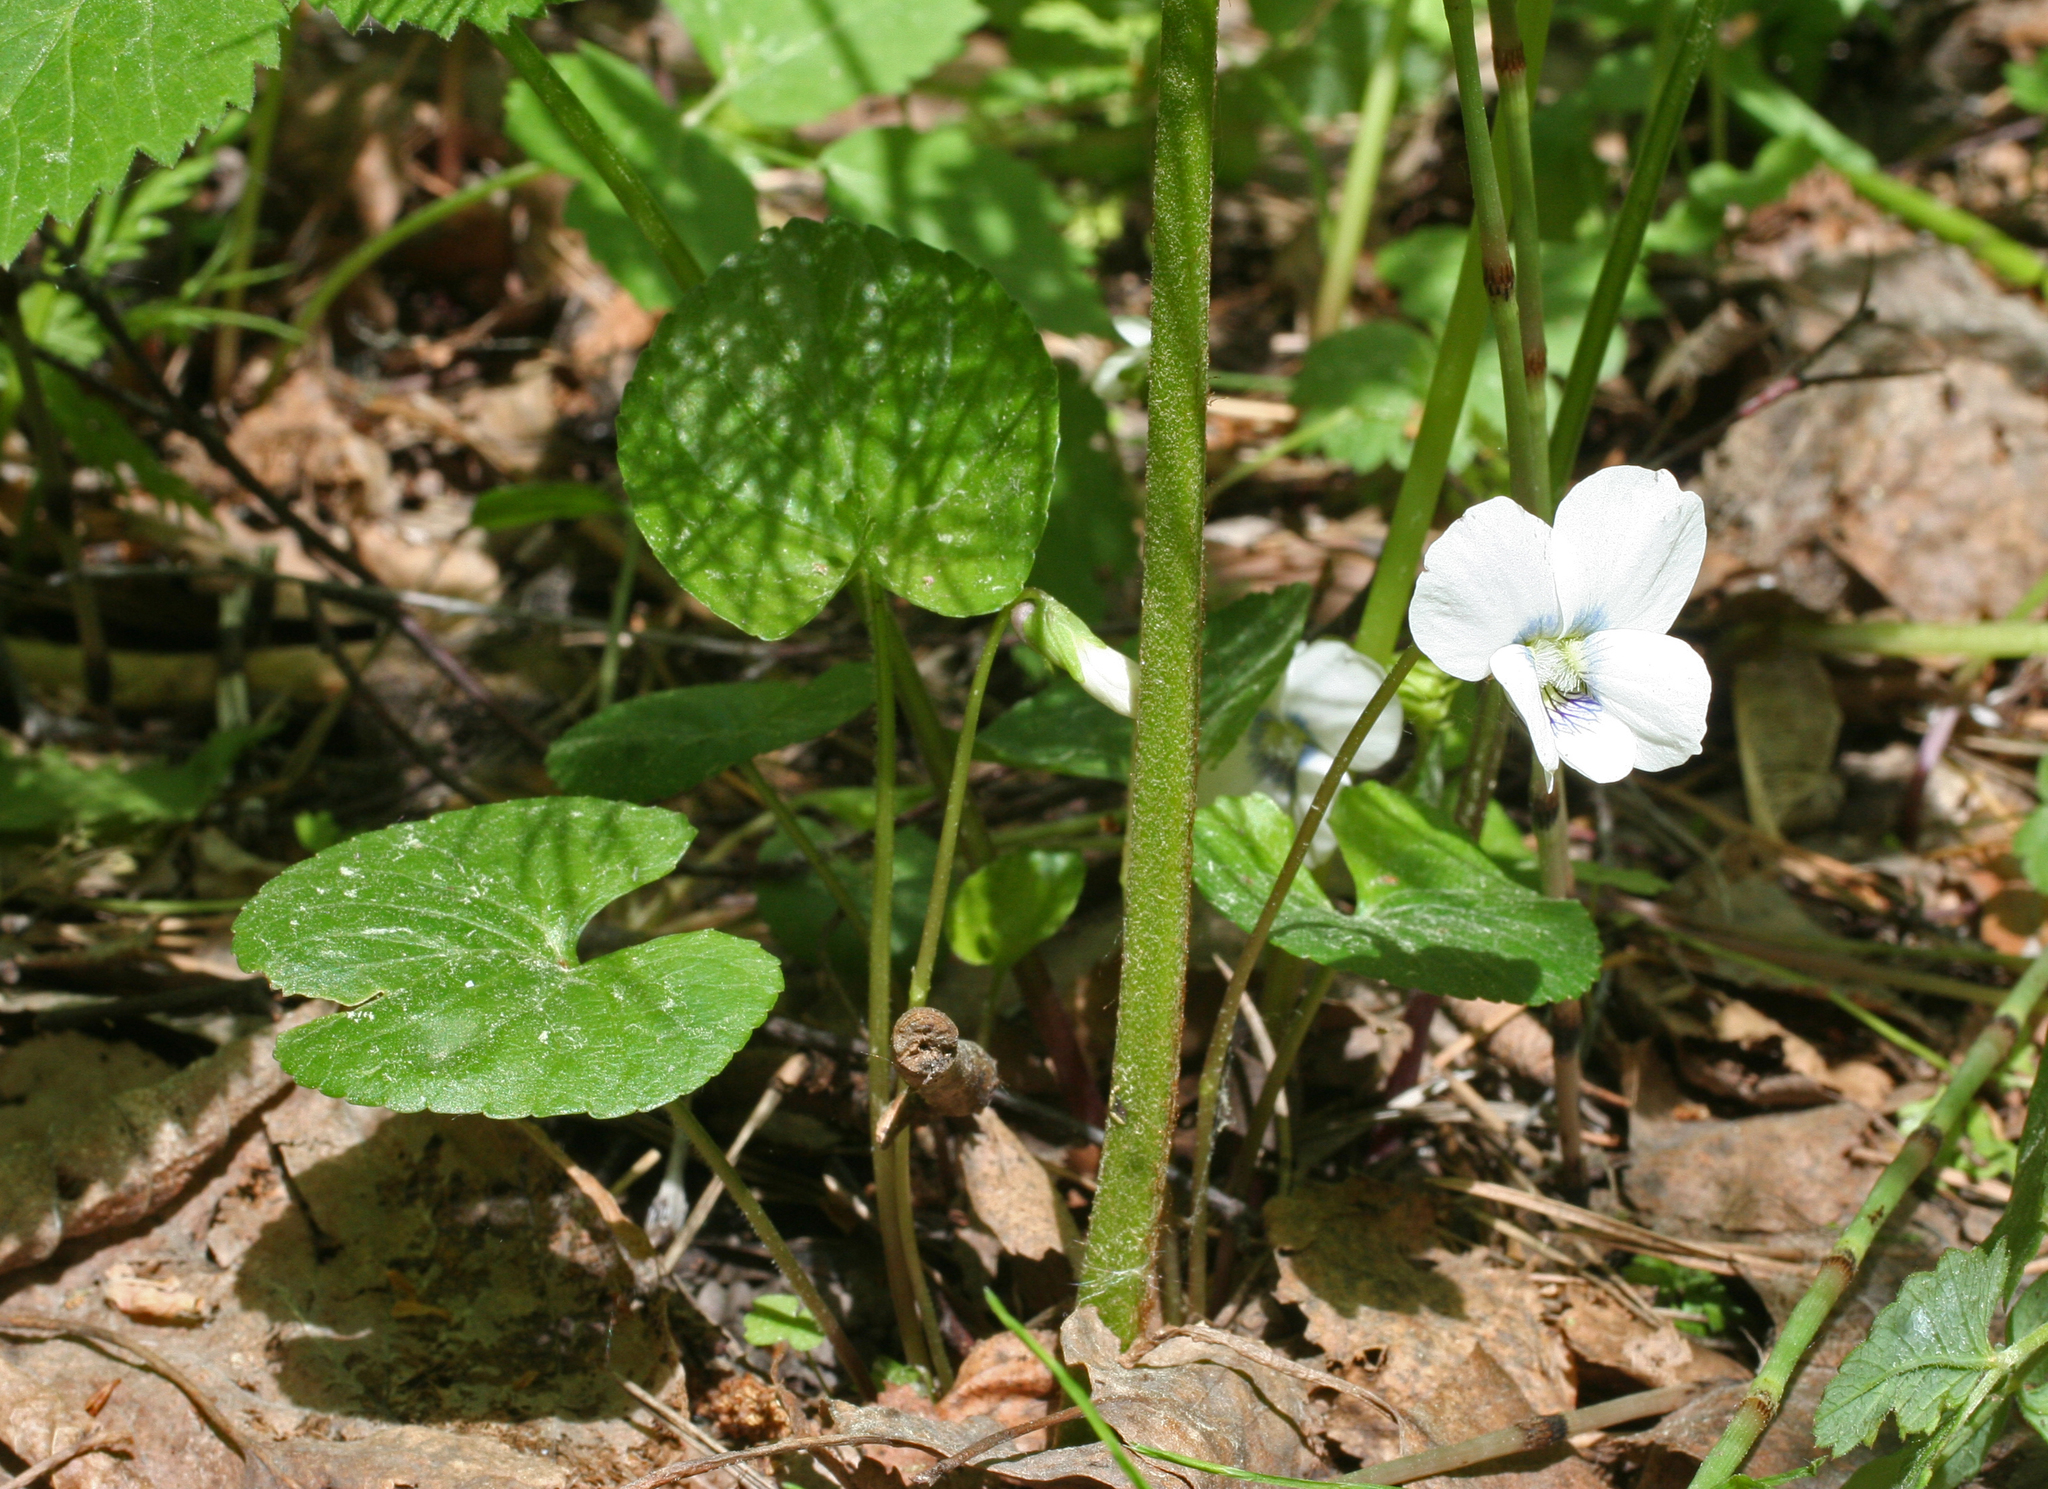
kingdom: Plantae
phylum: Tracheophyta
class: Magnoliopsida
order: Malpighiales
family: Violaceae
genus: Viola
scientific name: Viola sororia
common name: Dooryard violet
